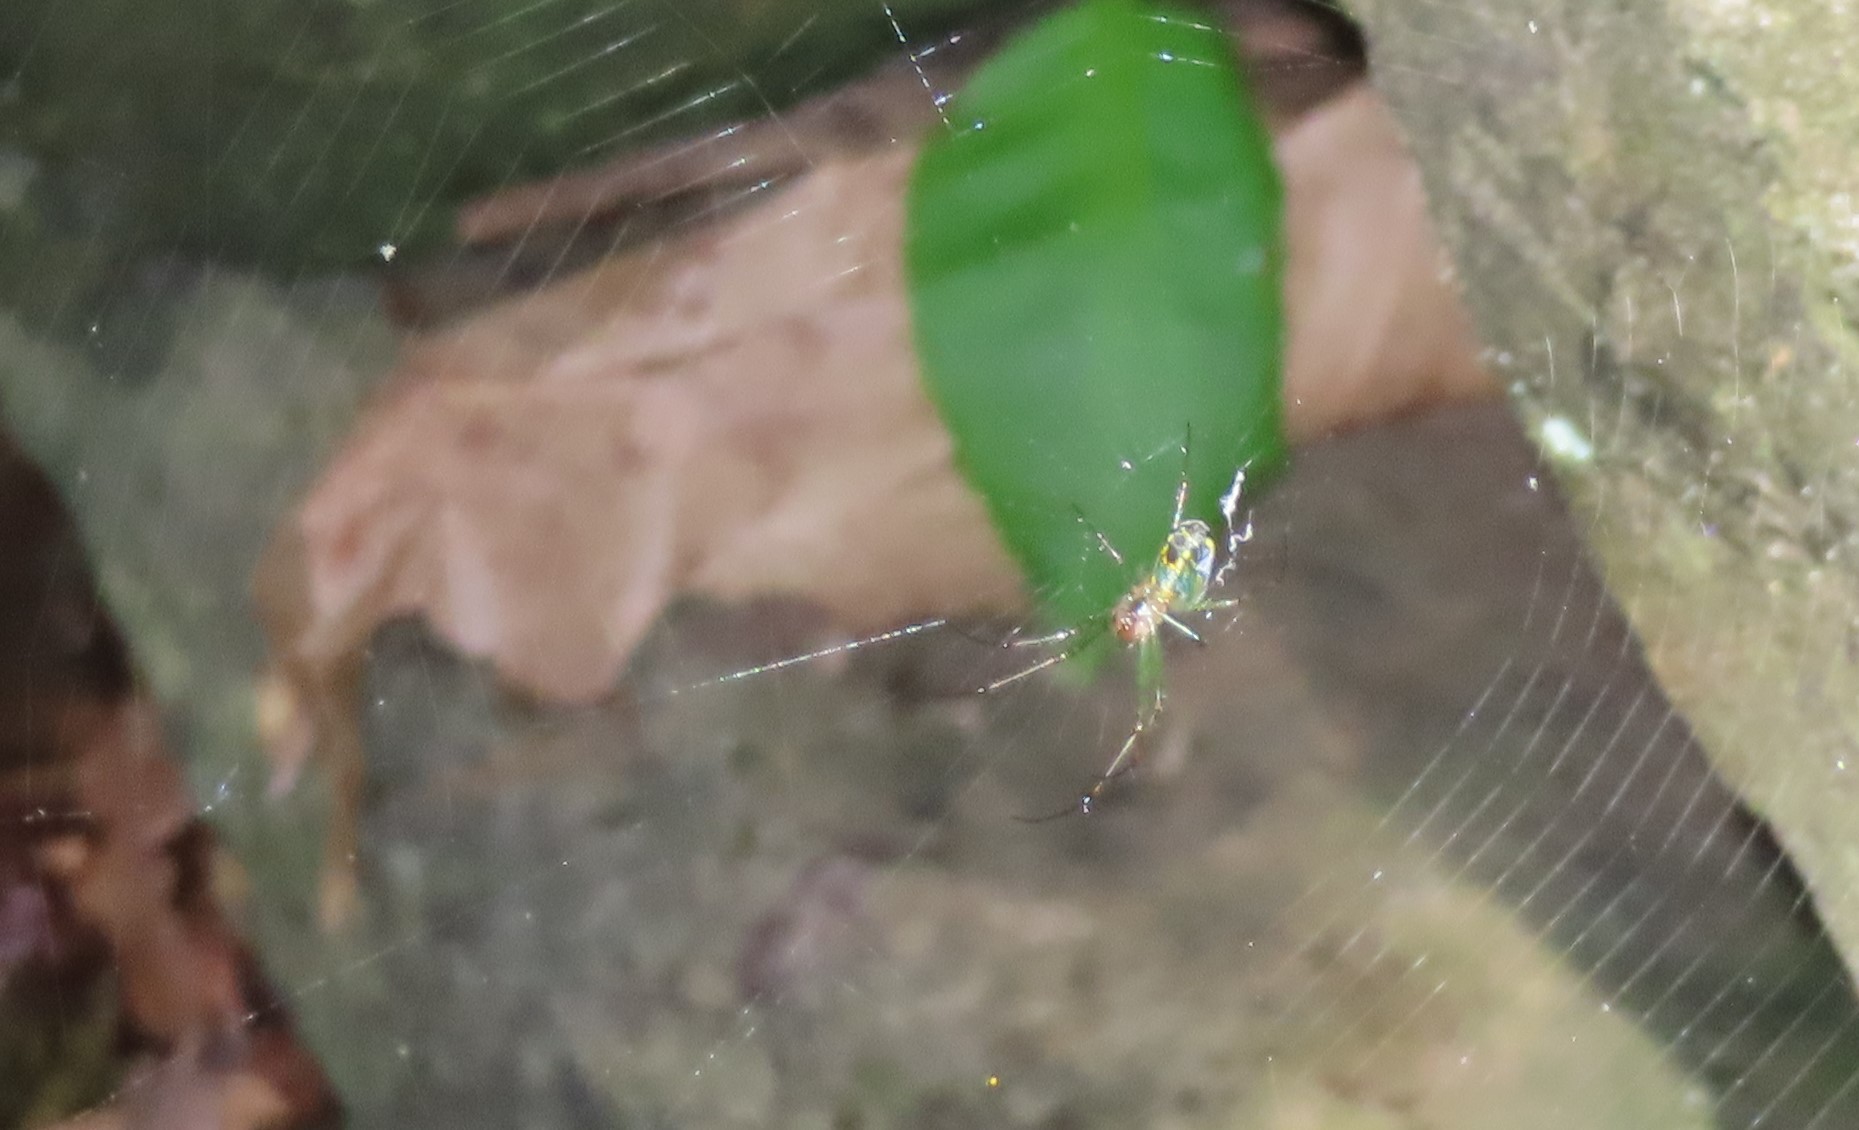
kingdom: Animalia
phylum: Arthropoda
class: Arachnida
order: Araneae
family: Tetragnathidae
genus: Leucauge
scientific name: Leucauge venusta
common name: Longjawed orb weavers
